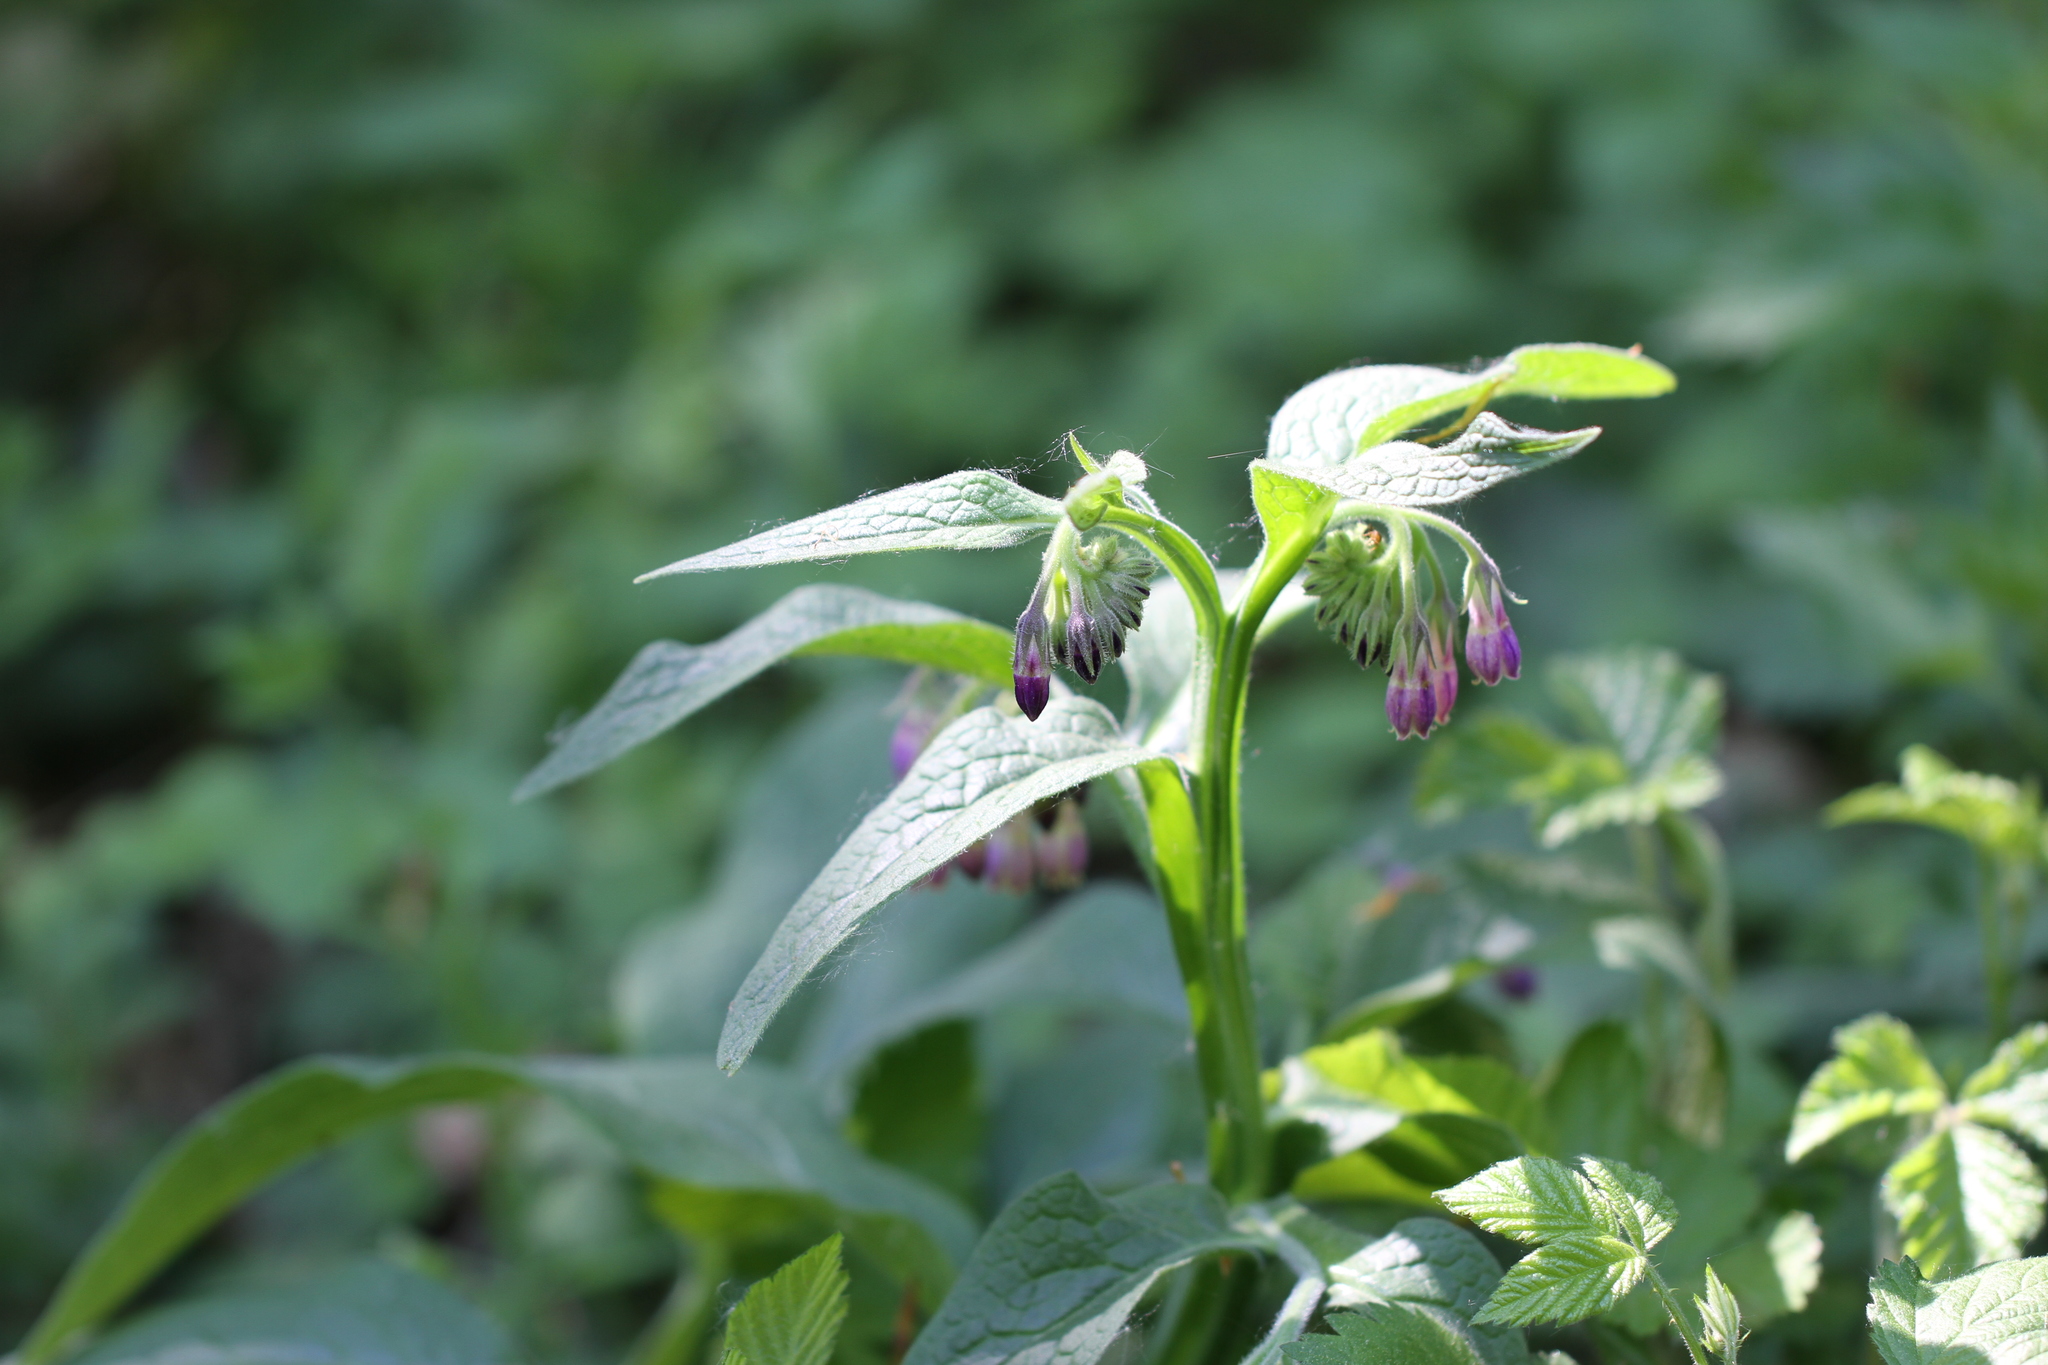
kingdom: Plantae
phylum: Tracheophyta
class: Magnoliopsida
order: Boraginales
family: Boraginaceae
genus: Symphytum
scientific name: Symphytum officinale
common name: Common comfrey
